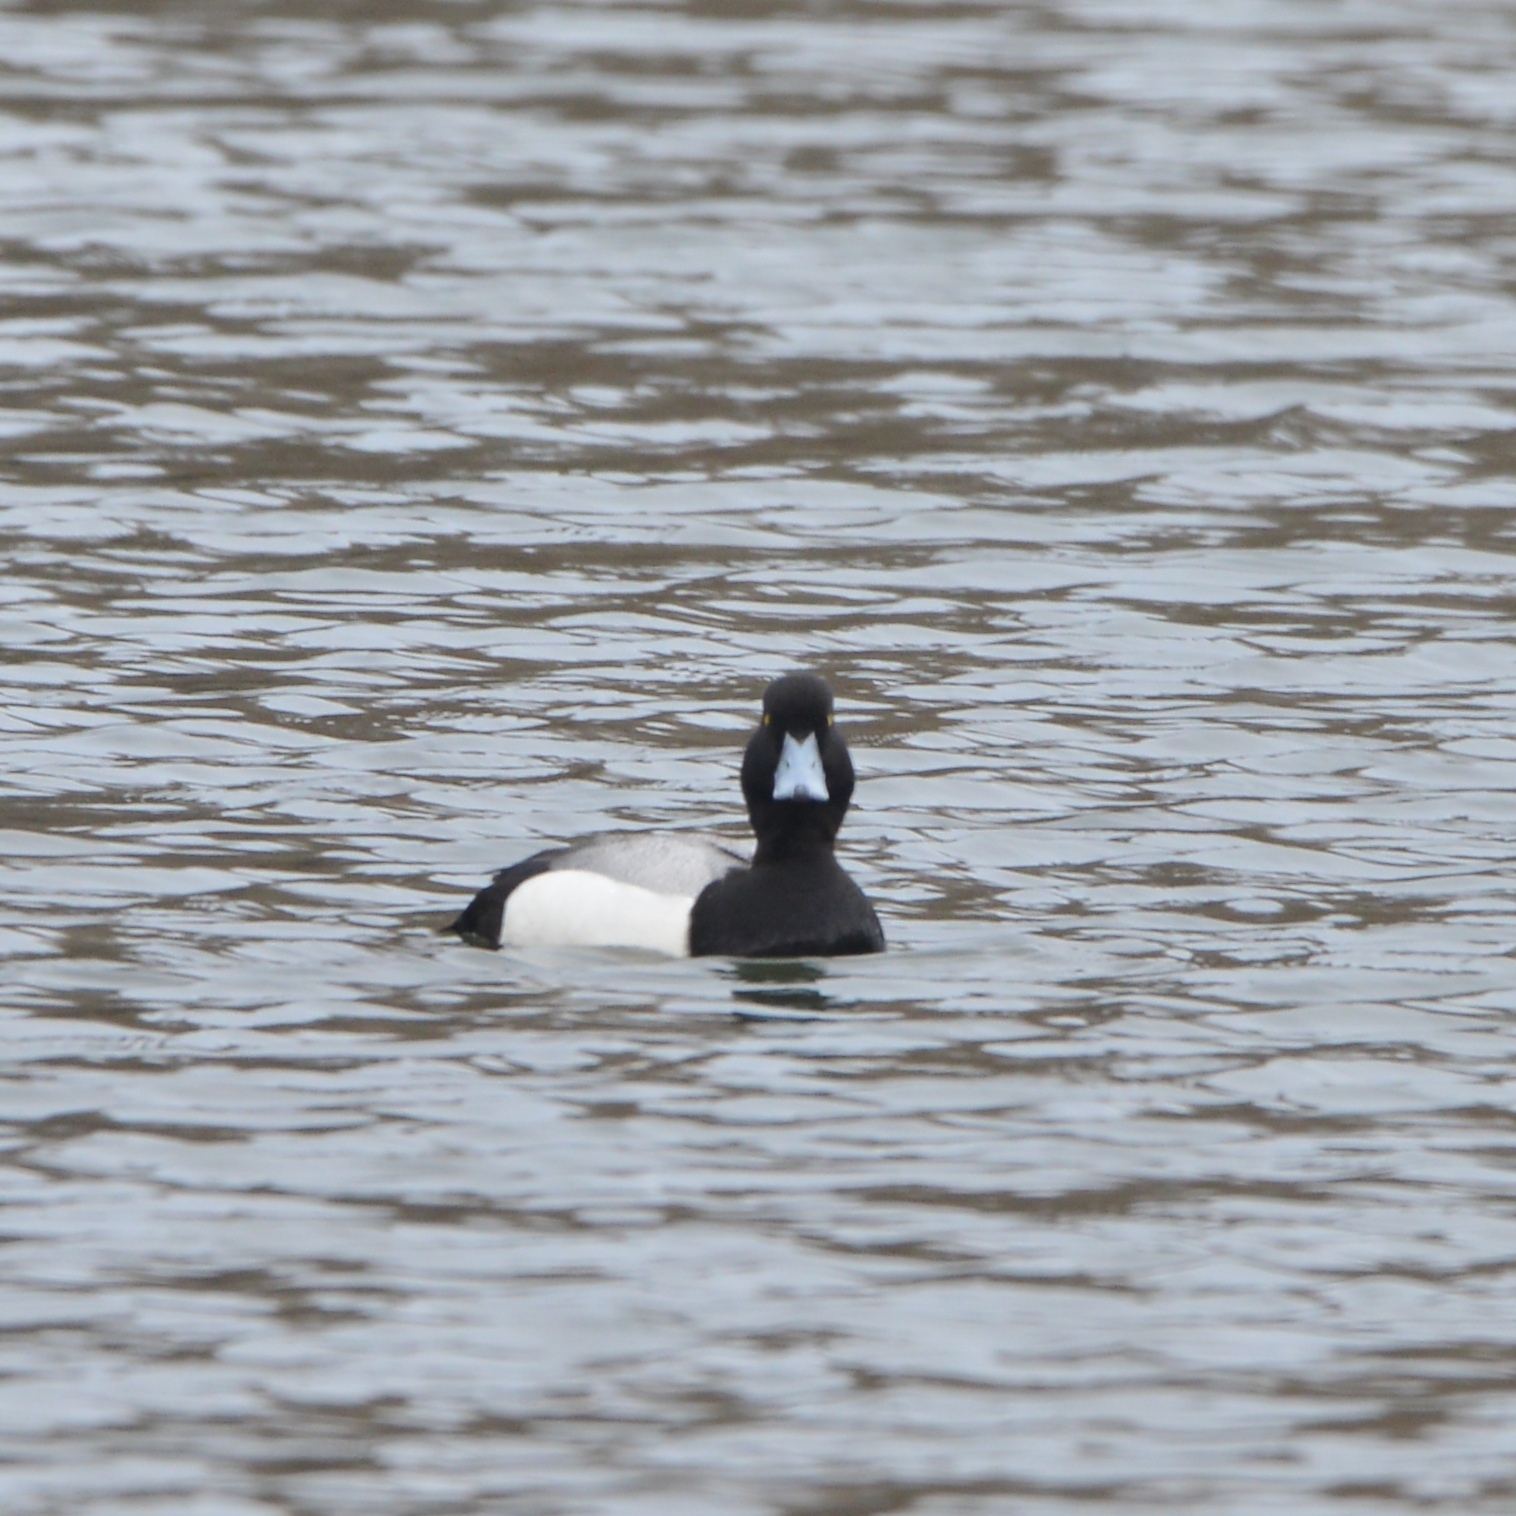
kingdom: Animalia
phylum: Chordata
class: Aves
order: Anseriformes
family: Anatidae
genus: Aythya
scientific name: Aythya marila
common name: Greater scaup
